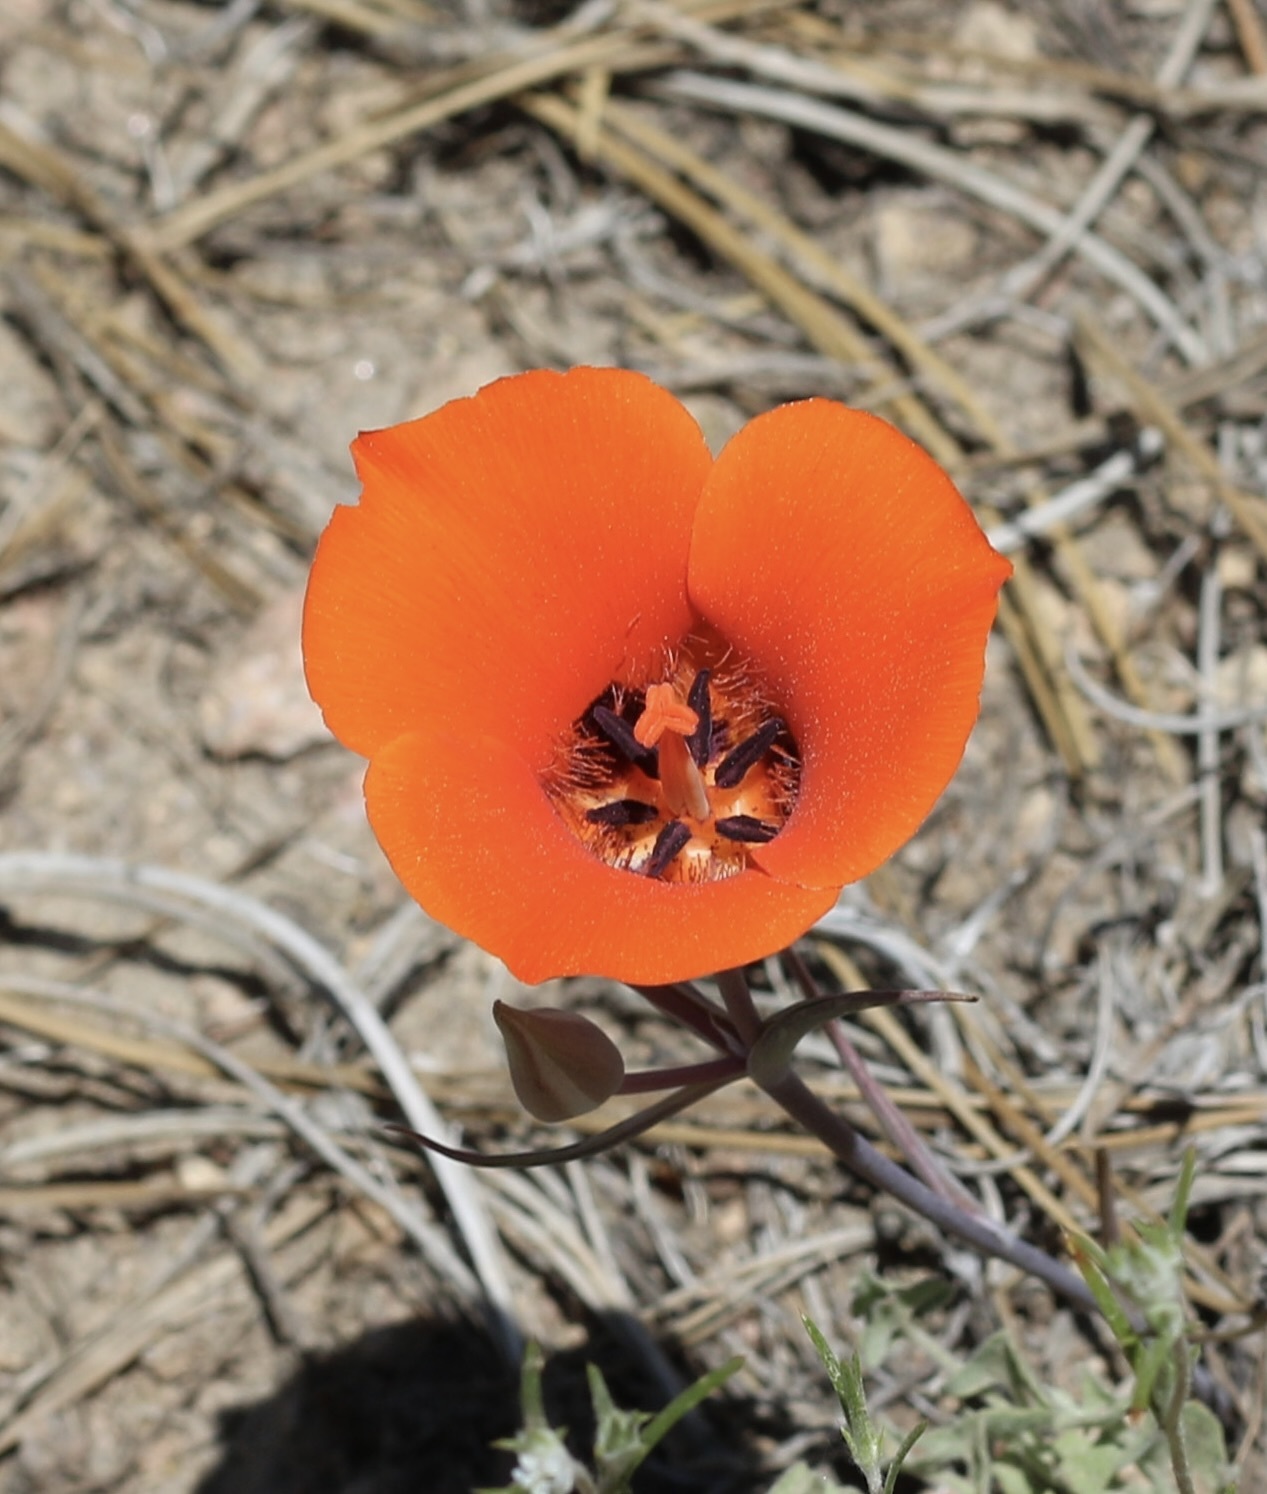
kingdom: Plantae
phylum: Tracheophyta
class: Liliopsida
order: Liliales
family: Liliaceae
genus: Calochortus
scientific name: Calochortus kennedyi
